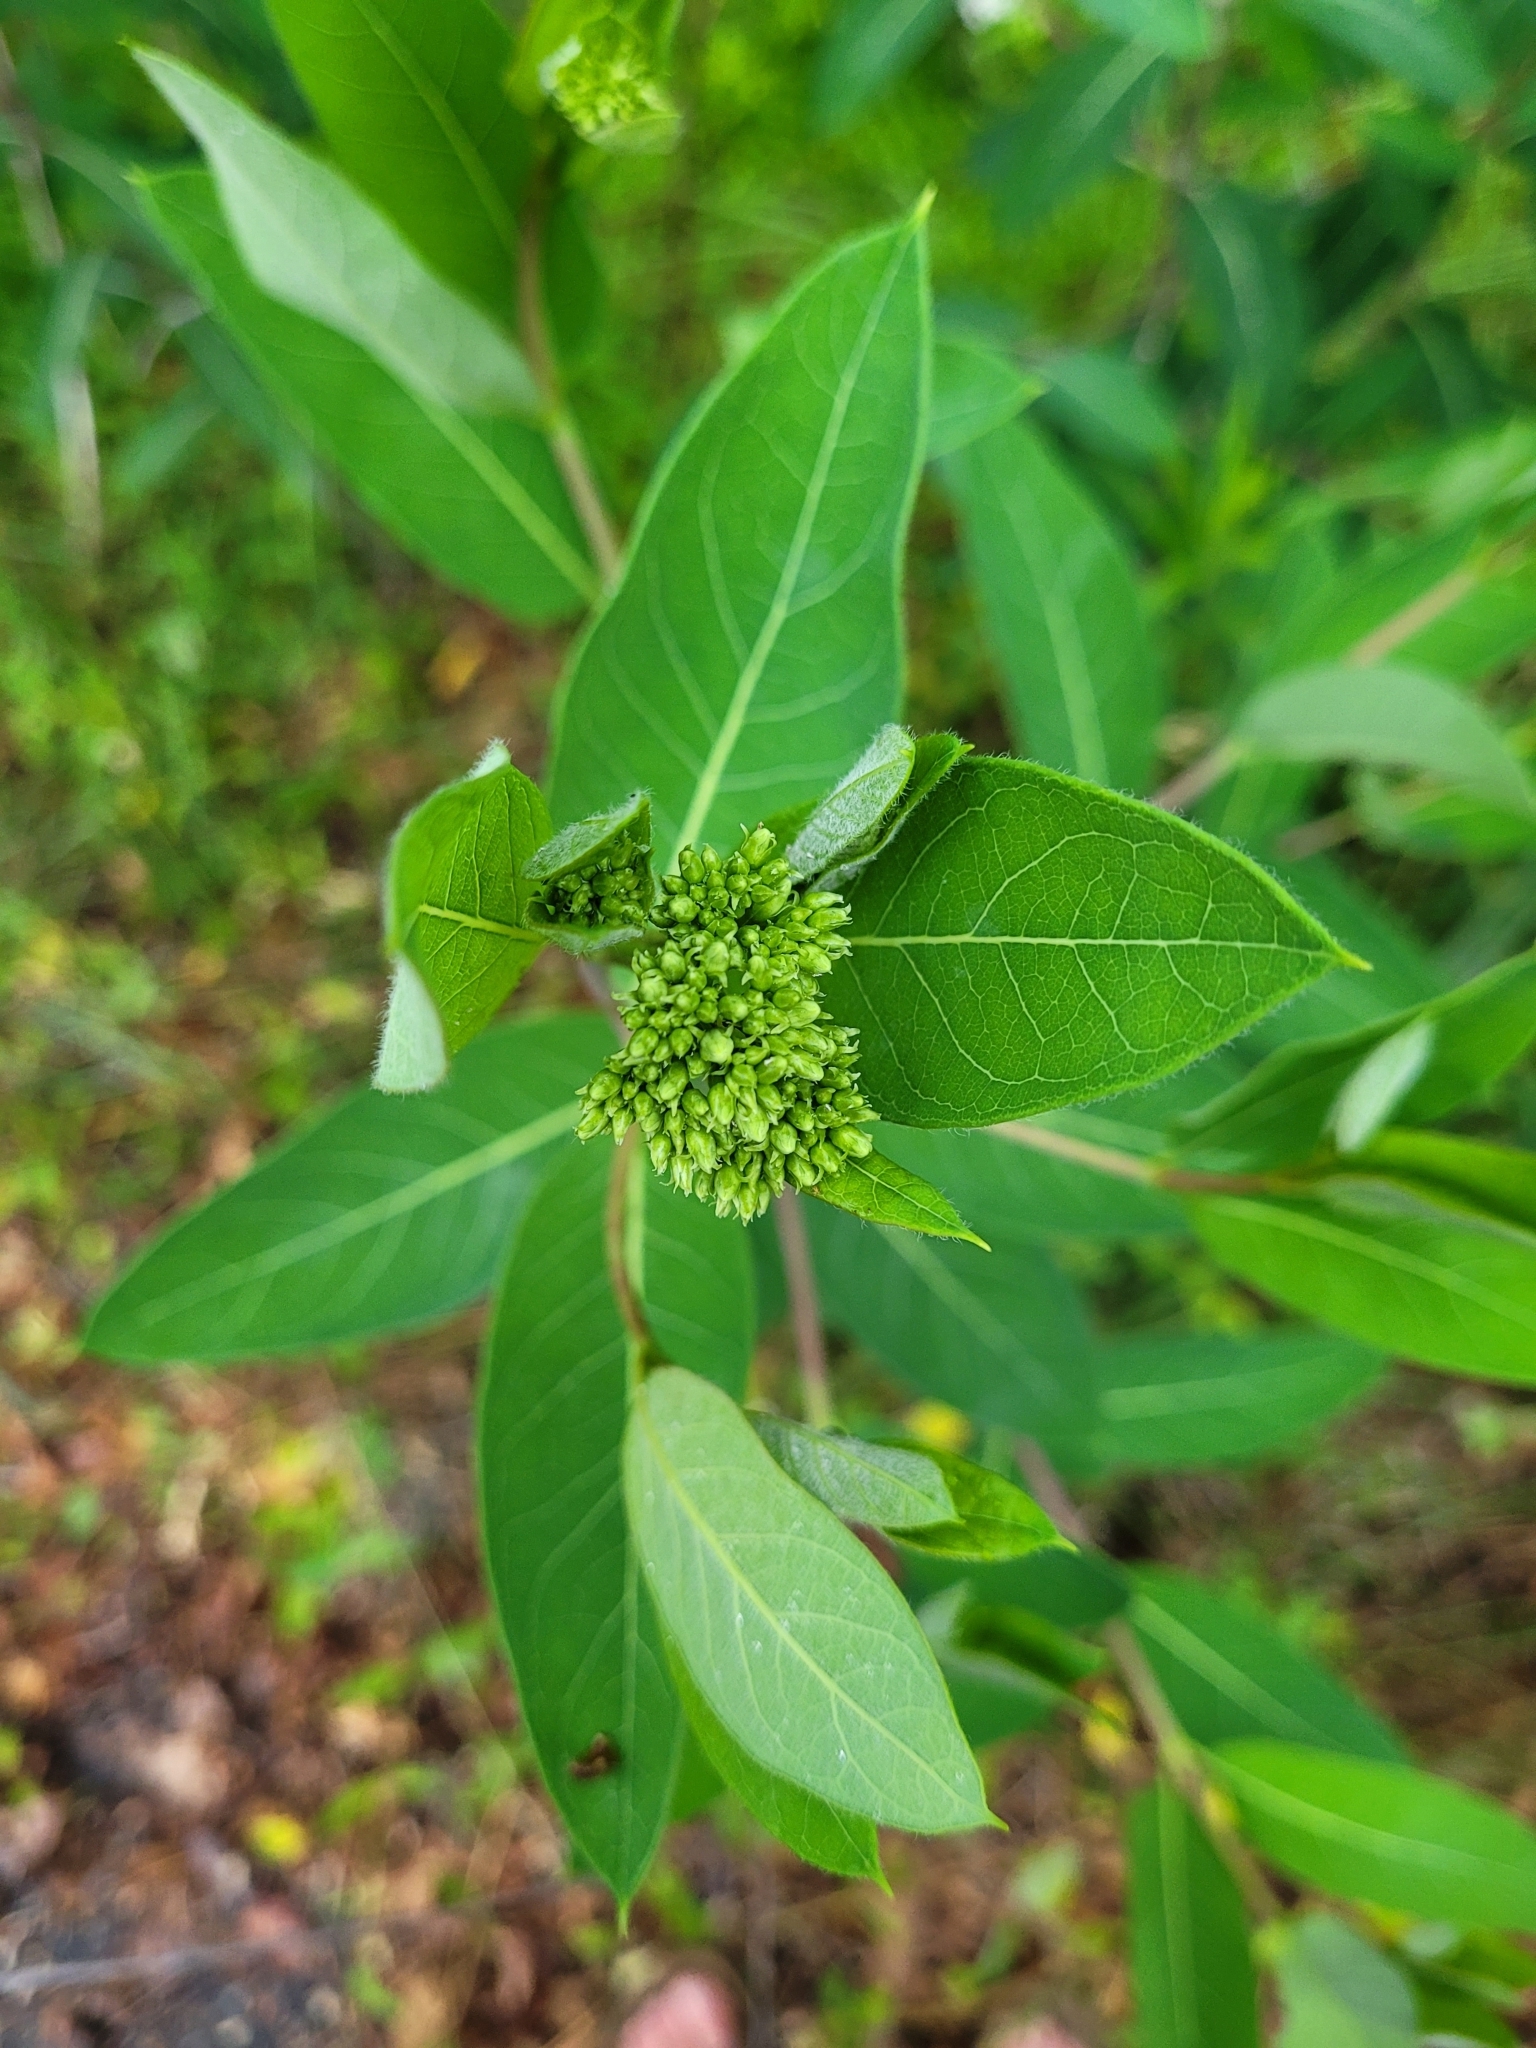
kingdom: Plantae
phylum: Tracheophyta
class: Magnoliopsida
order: Gentianales
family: Apocynaceae
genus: Apocynum
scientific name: Apocynum cannabinum
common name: Hemp dogbane
